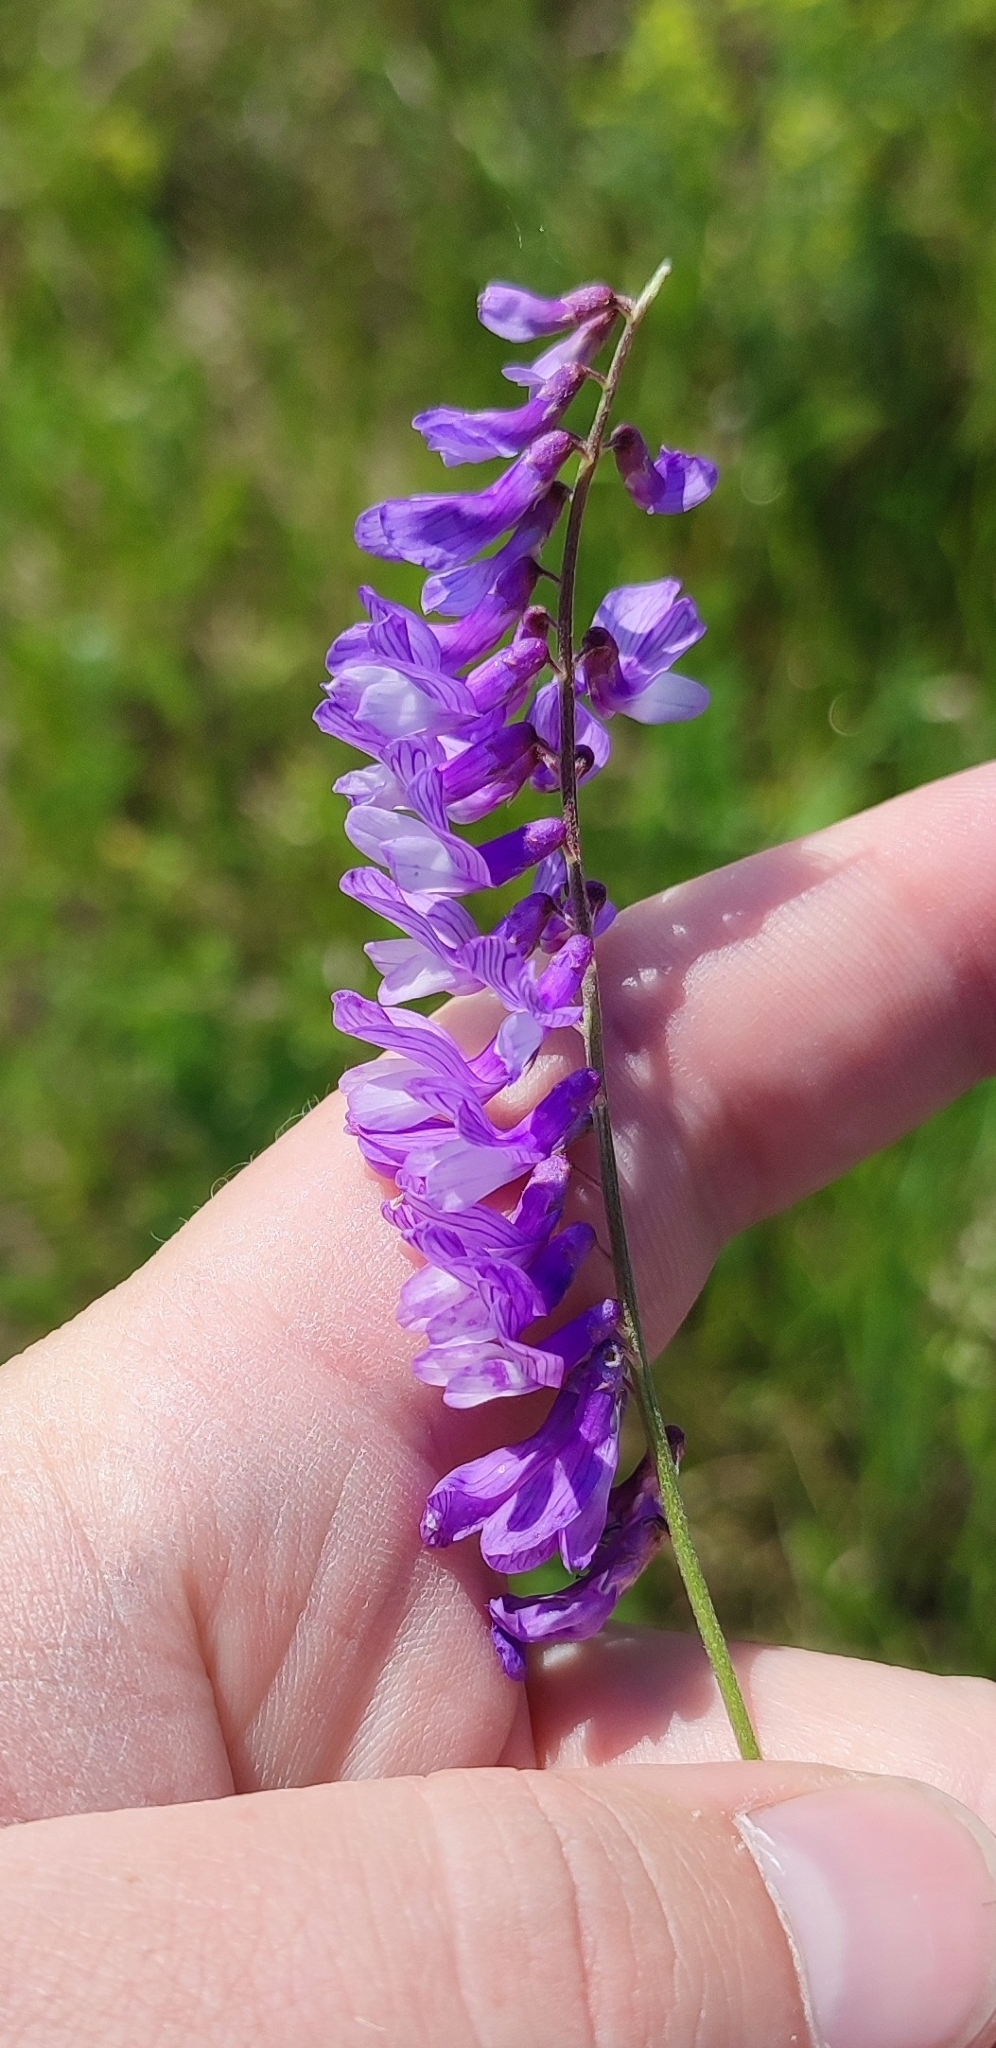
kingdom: Plantae
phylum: Tracheophyta
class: Magnoliopsida
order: Fabales
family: Fabaceae
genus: Vicia
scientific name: Vicia tenuifolia
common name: Fine-leaved vetch
